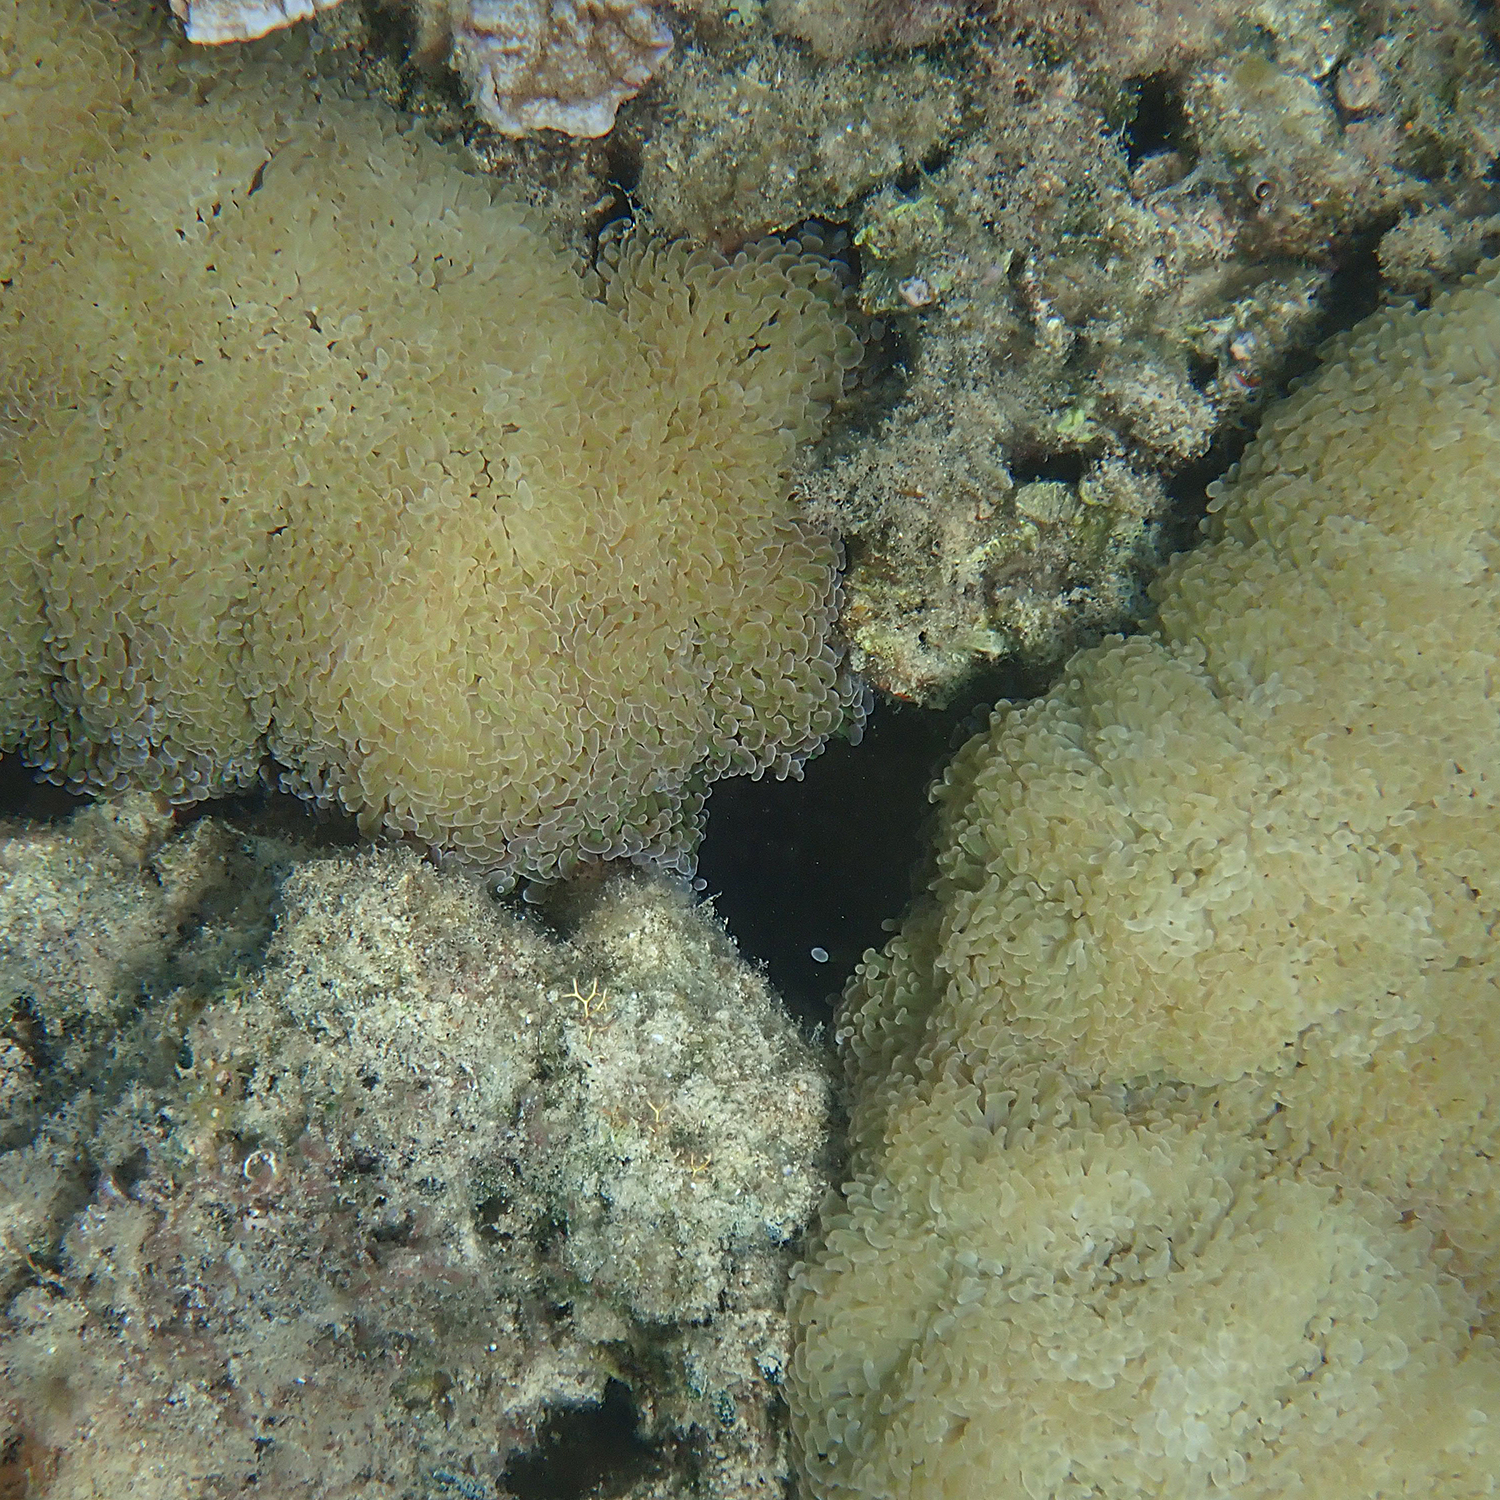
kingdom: Animalia
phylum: Cnidaria
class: Anthozoa
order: Scleractinia
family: Euphylliidae
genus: Fimbriaphyllia
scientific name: Fimbriaphyllia ancora
